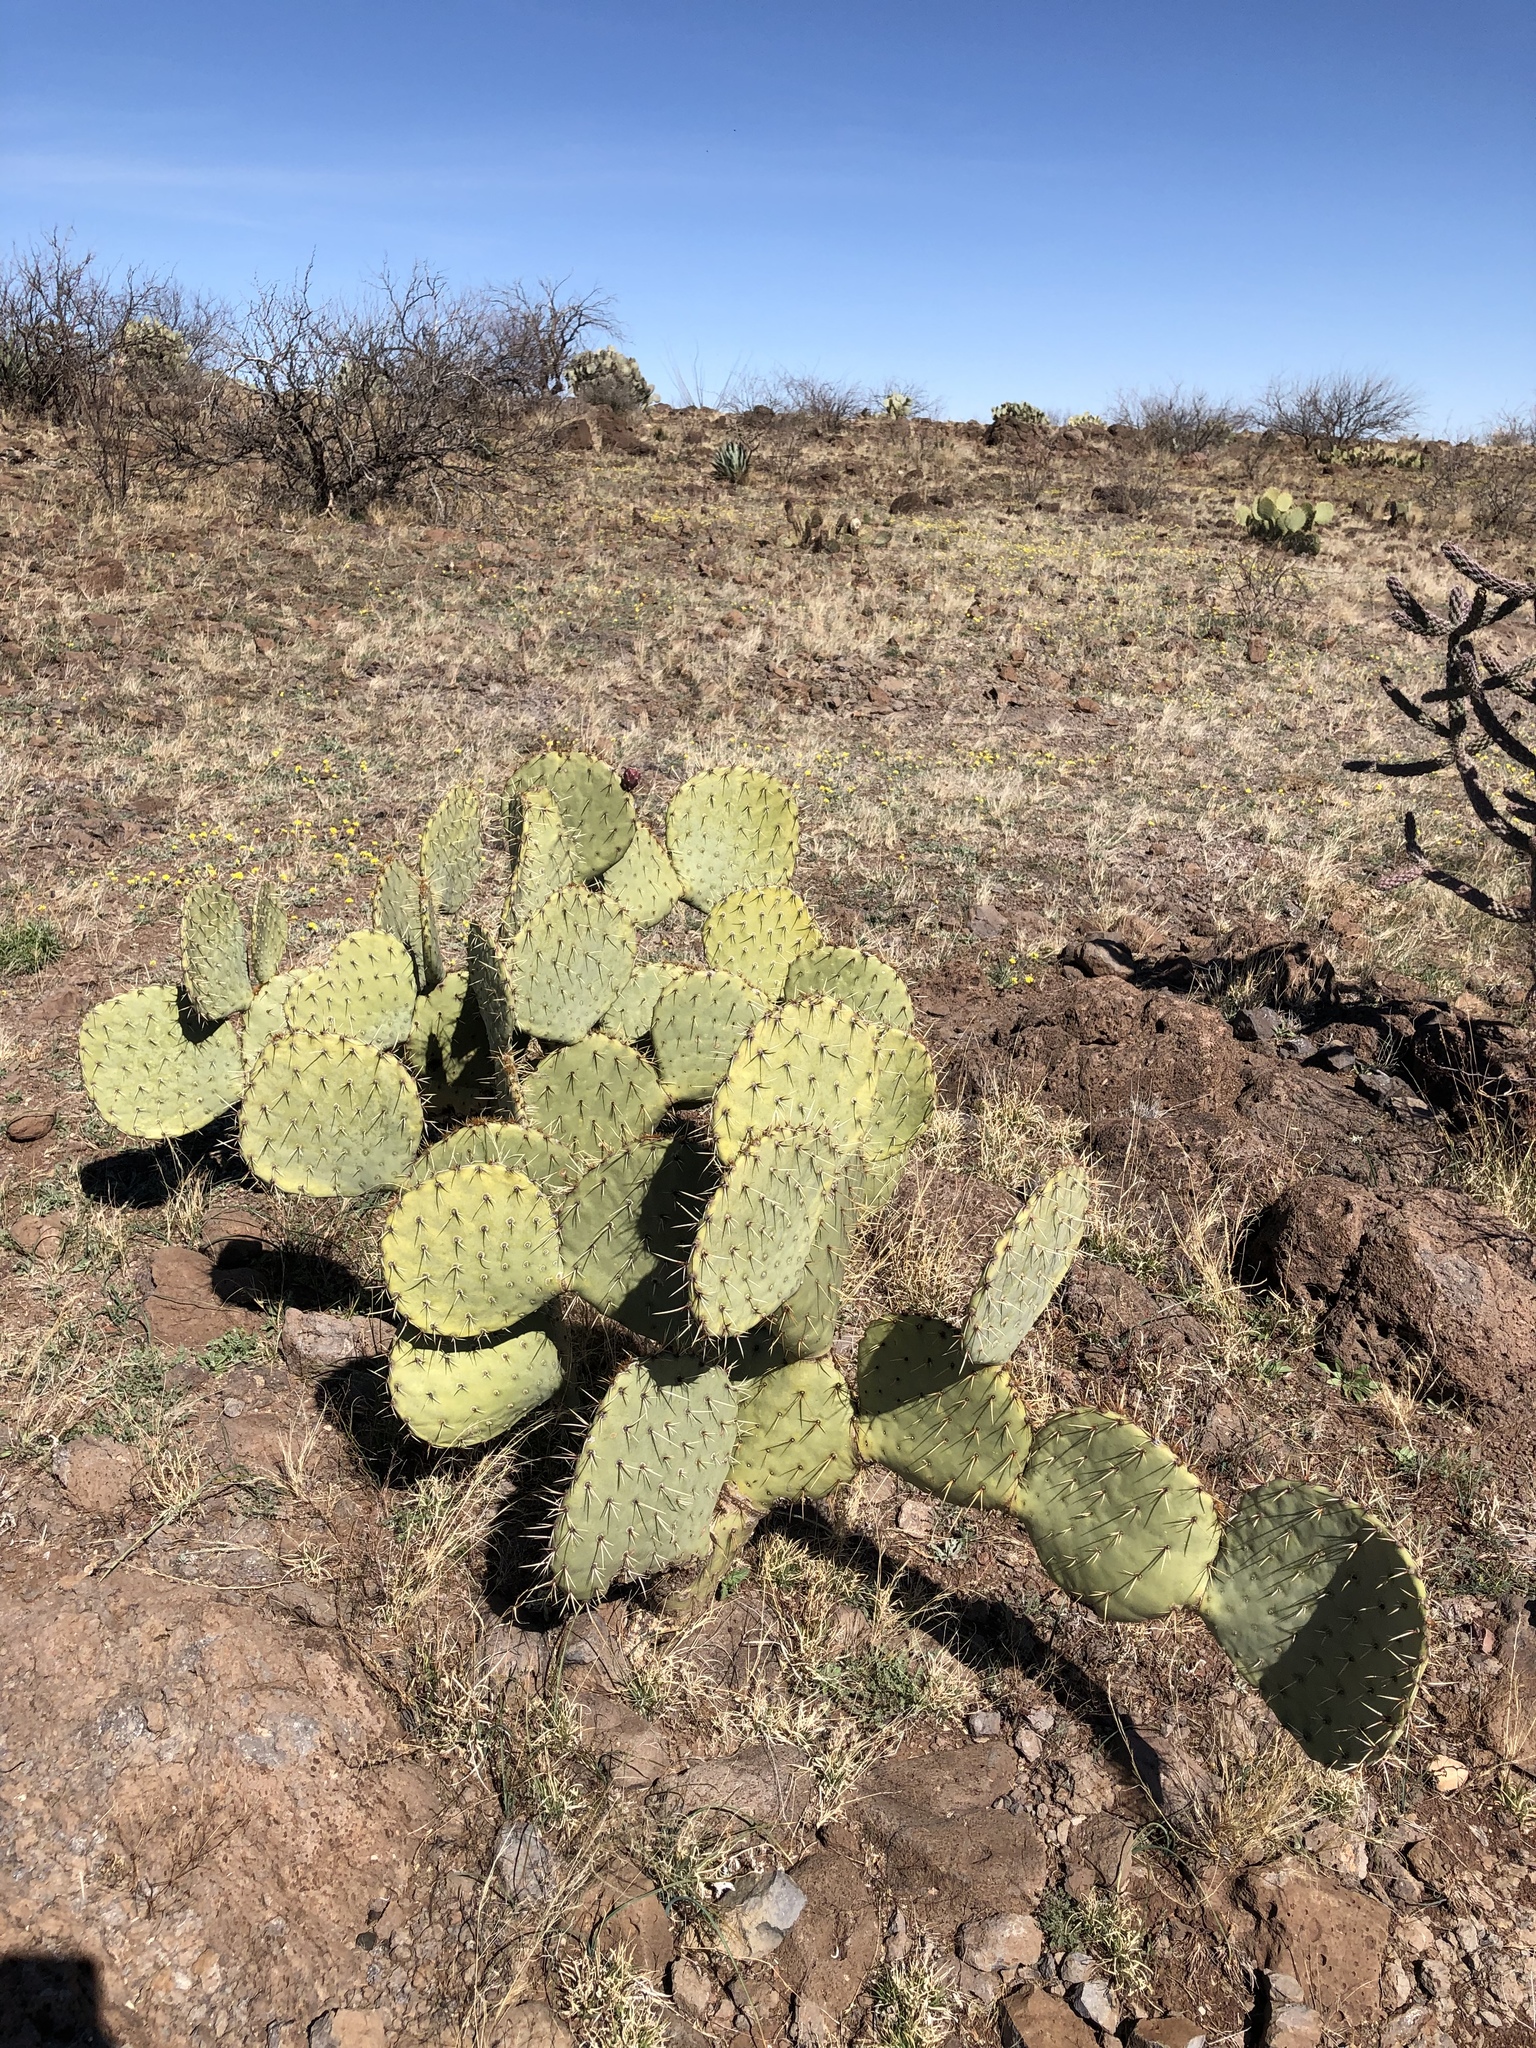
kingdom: Plantae
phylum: Tracheophyta
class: Magnoliopsida
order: Caryophyllales
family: Cactaceae
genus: Opuntia
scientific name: Opuntia orbiculata
